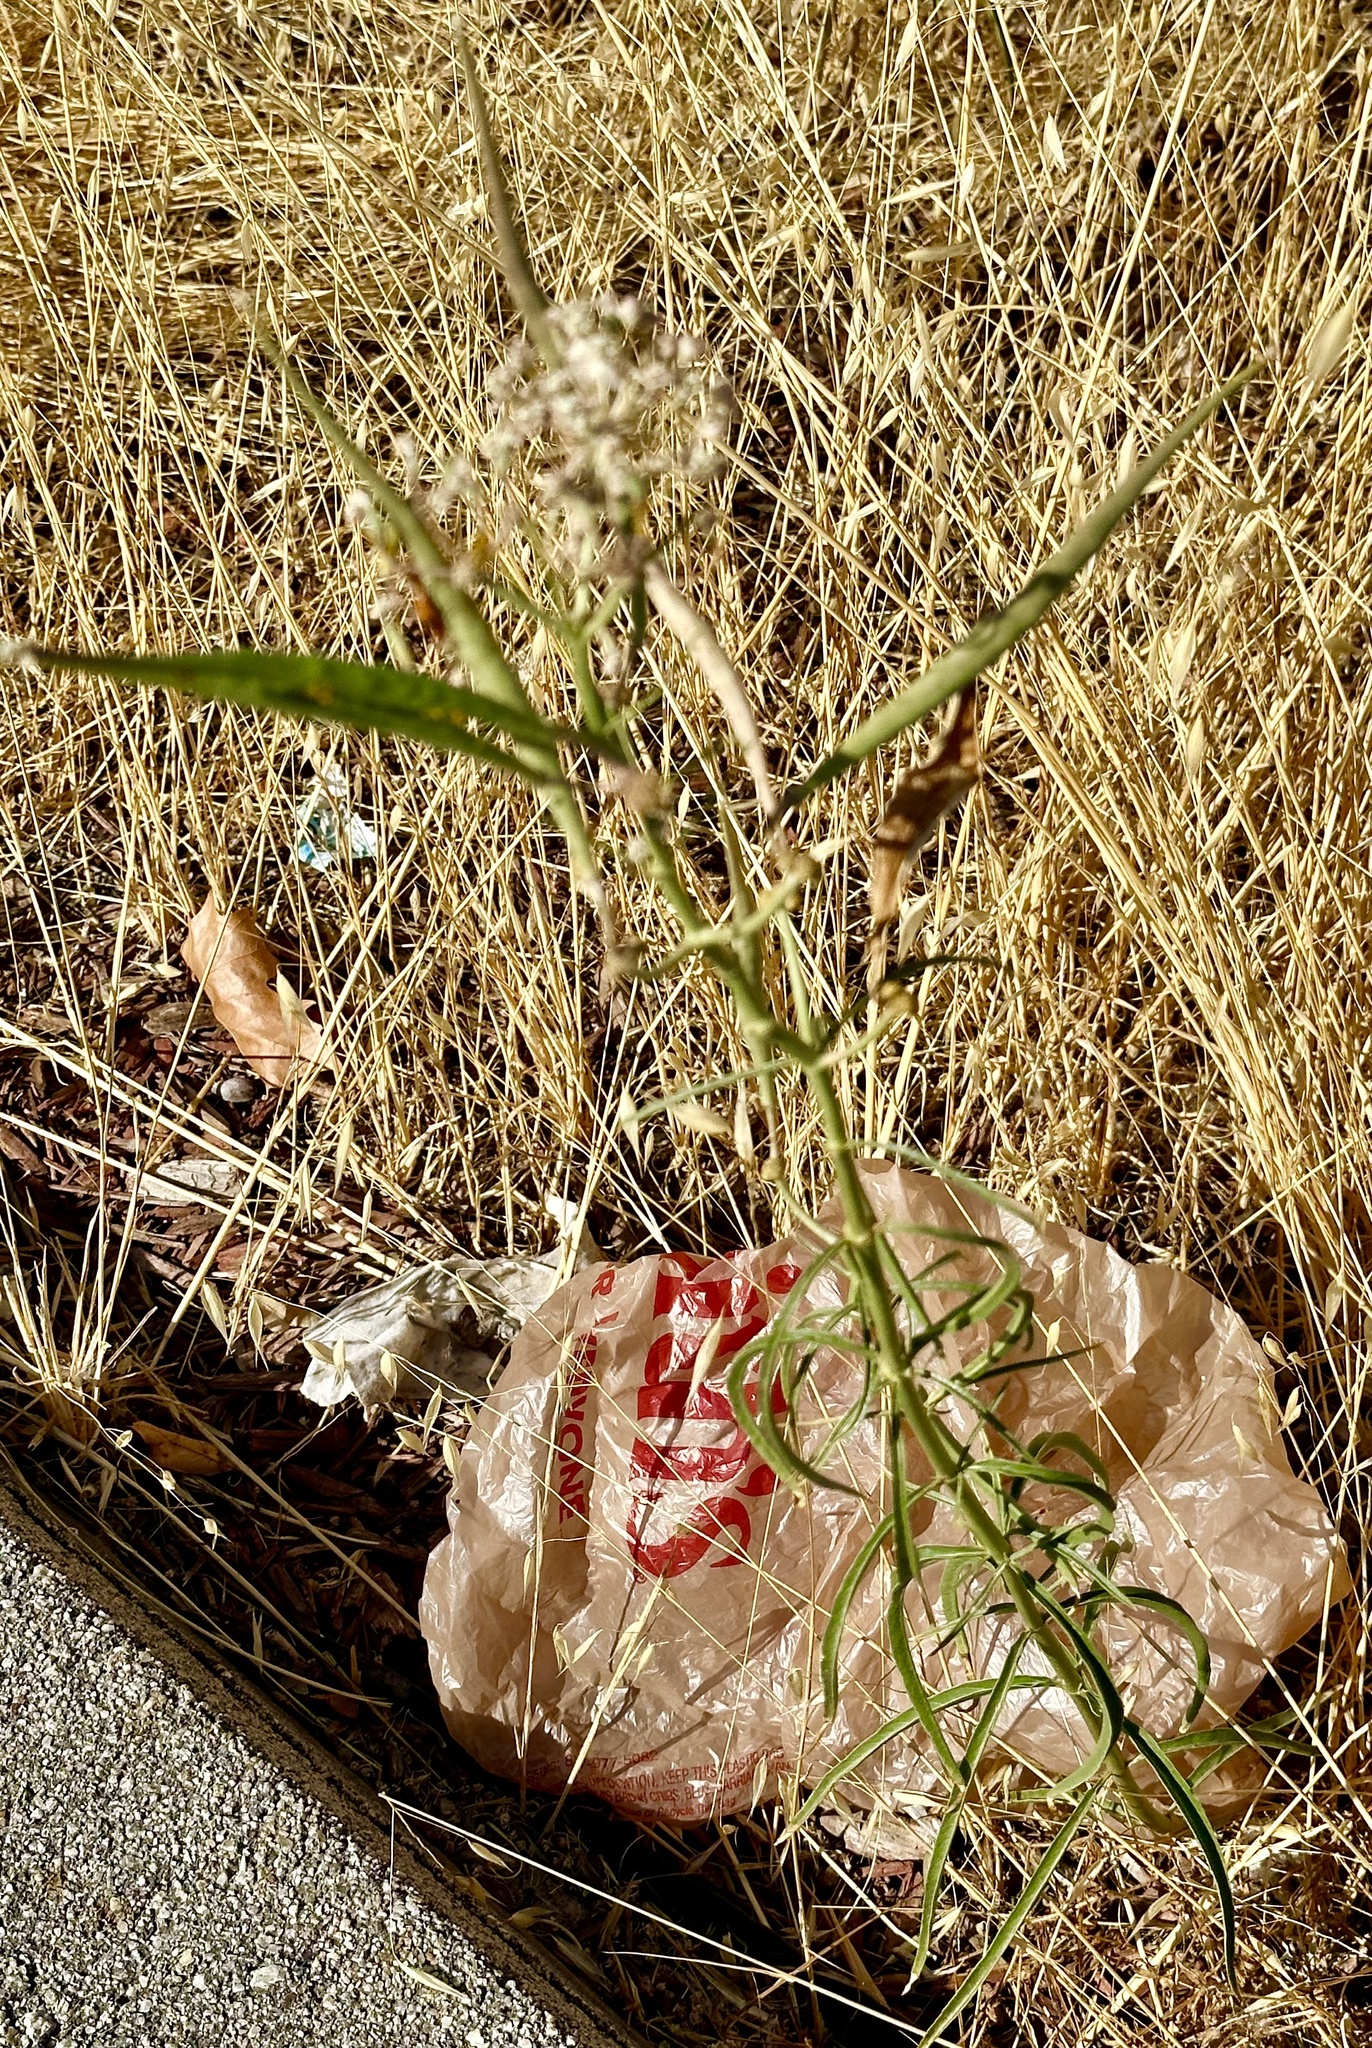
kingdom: Plantae
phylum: Tracheophyta
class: Magnoliopsida
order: Gentianales
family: Apocynaceae
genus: Asclepias
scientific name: Asclepias fascicularis
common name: Mexican milkweed
